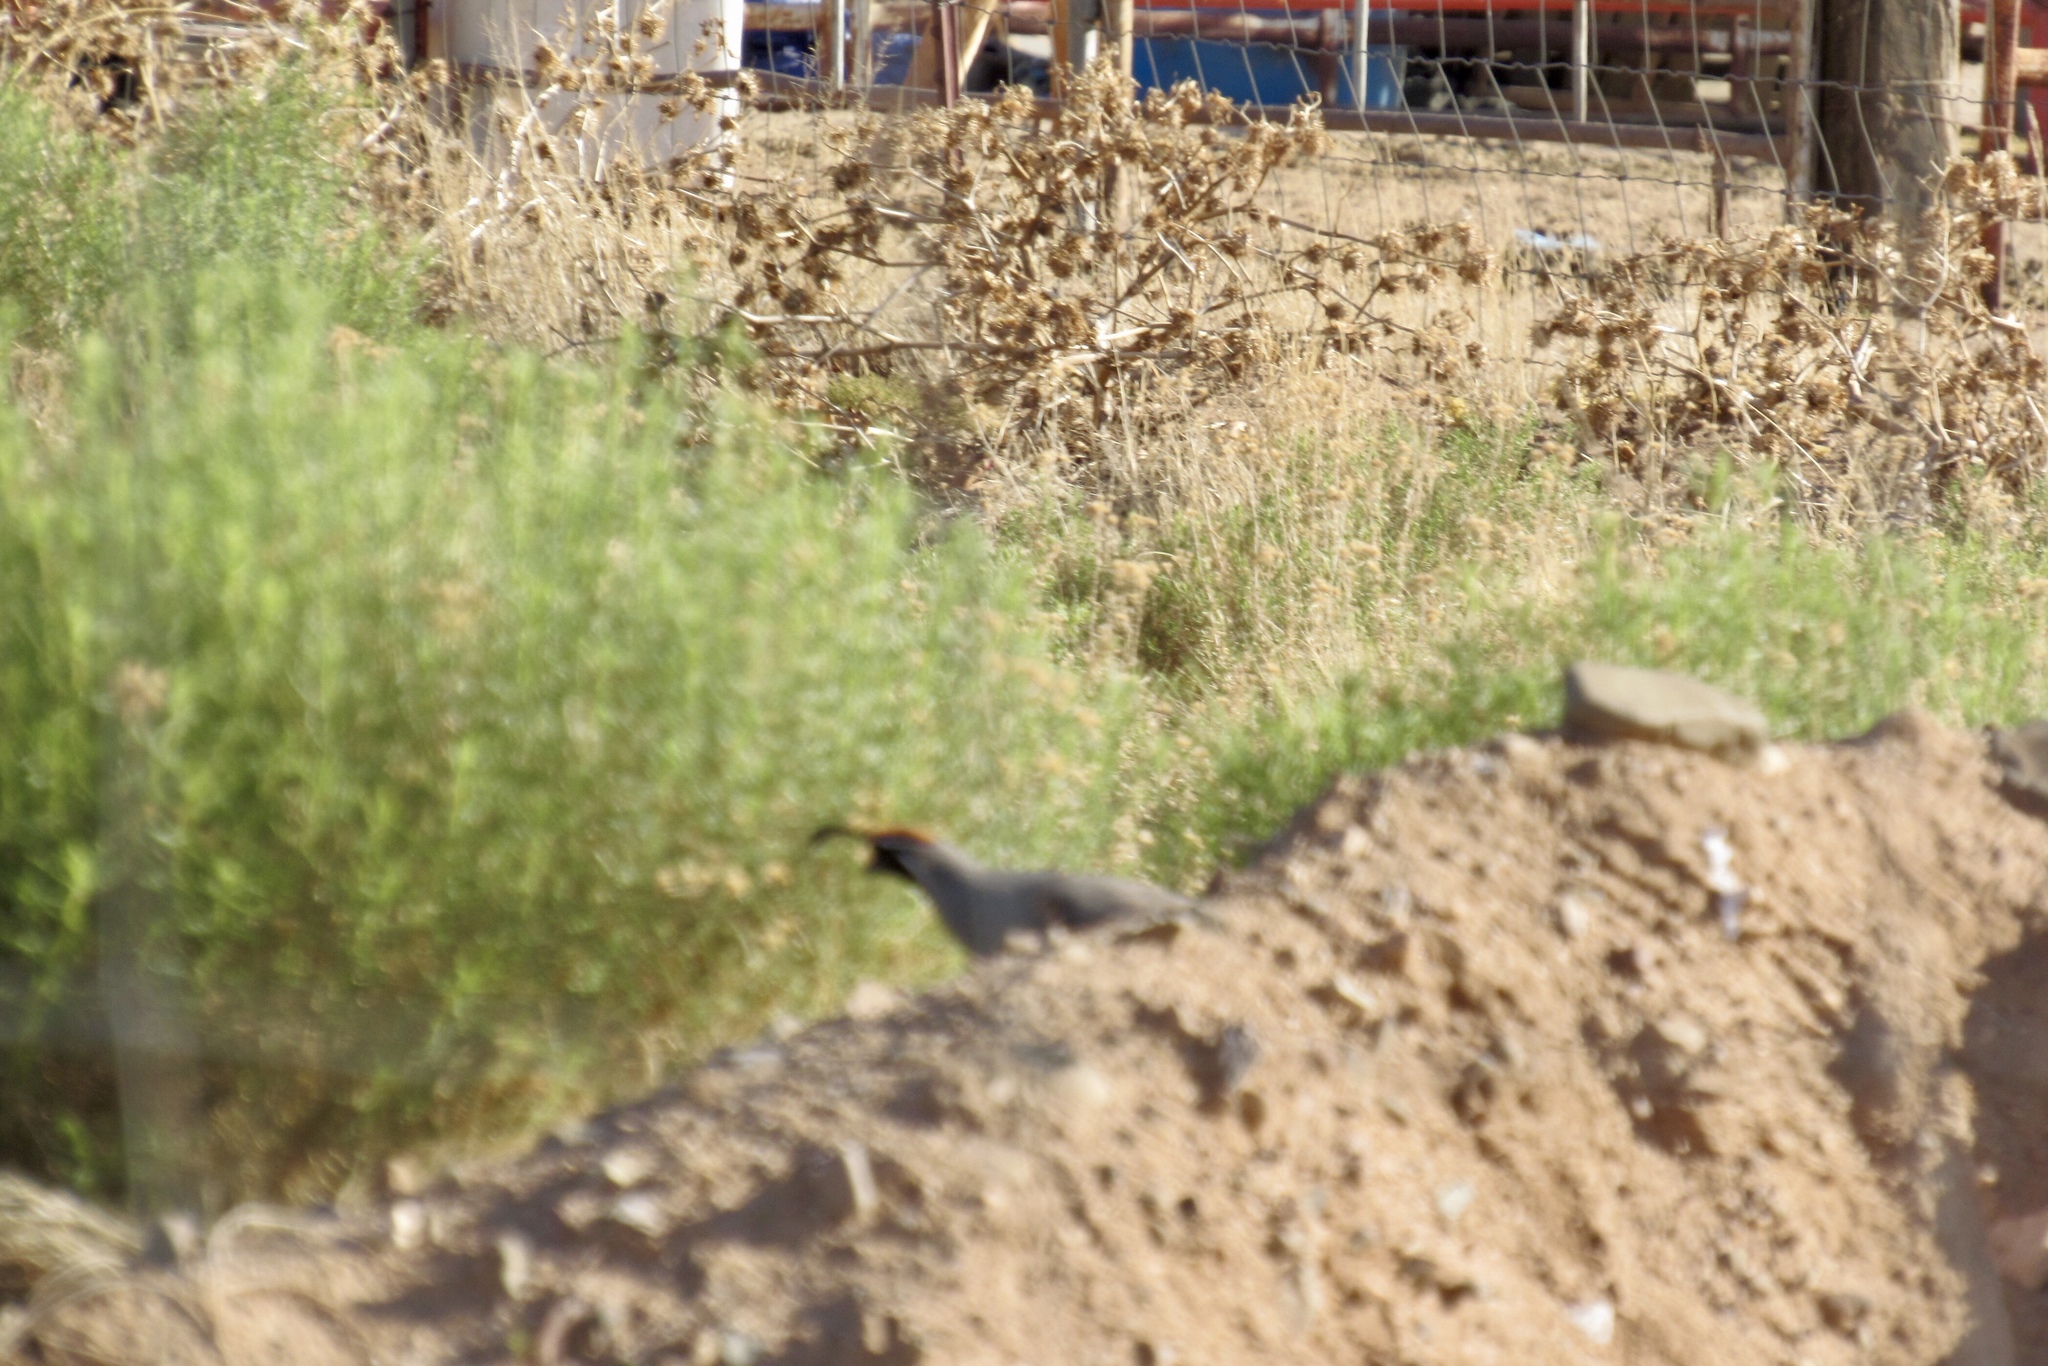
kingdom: Animalia
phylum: Chordata
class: Aves
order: Galliformes
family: Odontophoridae
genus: Callipepla
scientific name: Callipepla gambelii
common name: Gambel's quail
